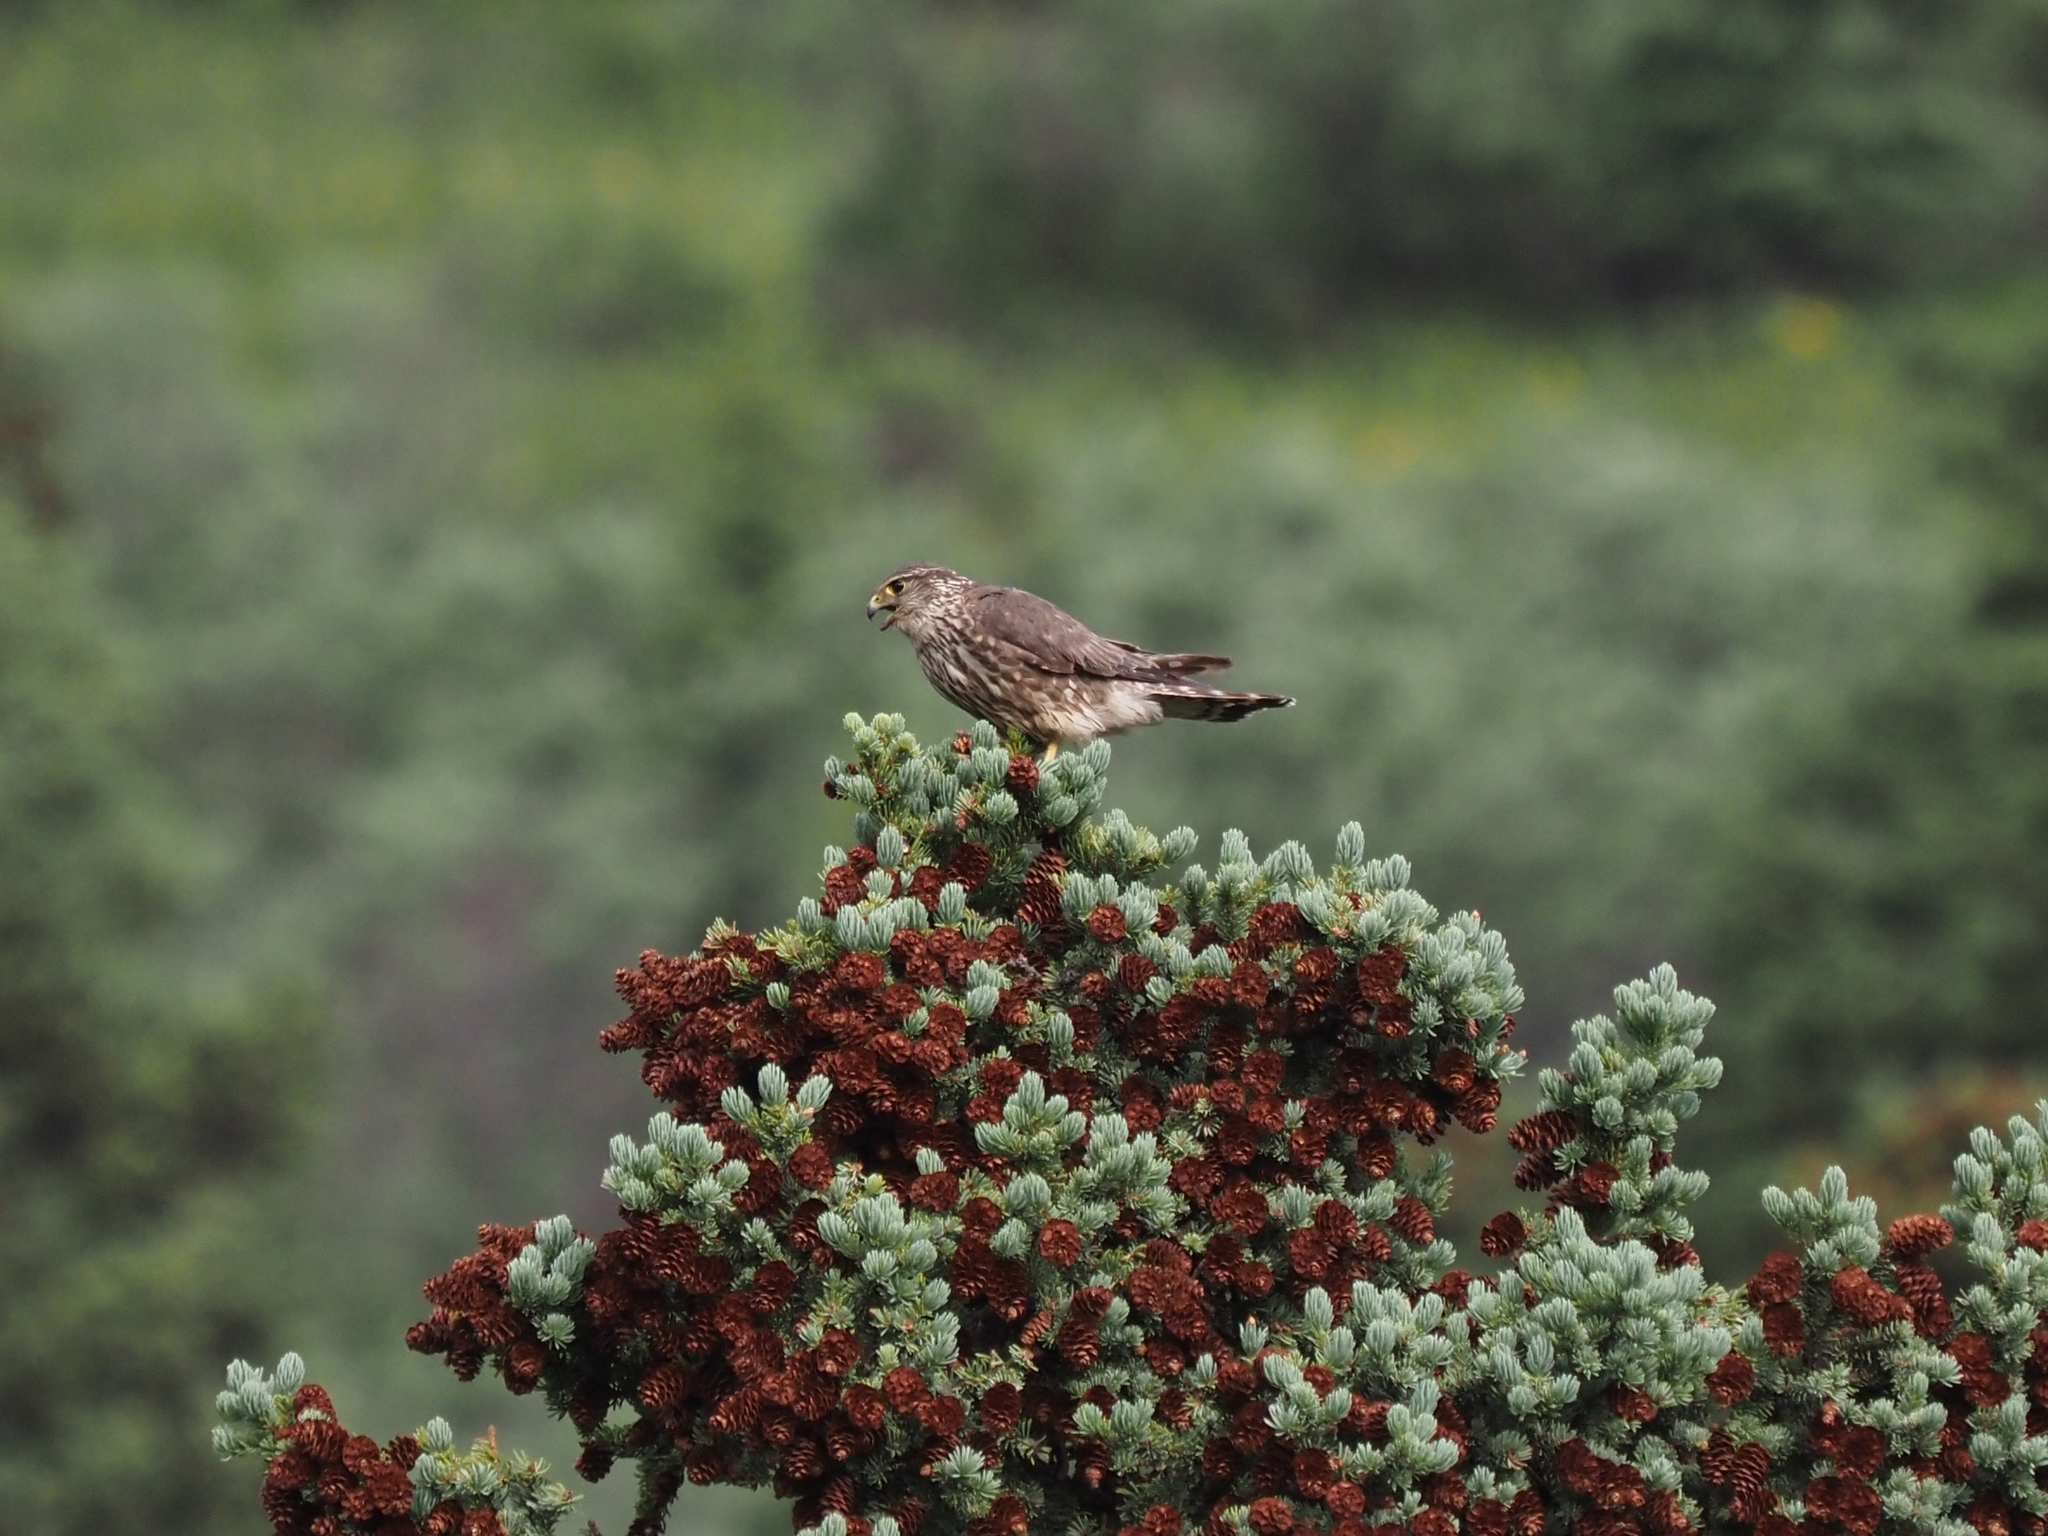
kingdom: Animalia
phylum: Chordata
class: Aves
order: Falconiformes
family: Falconidae
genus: Falco
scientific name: Falco columbarius
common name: Merlin
